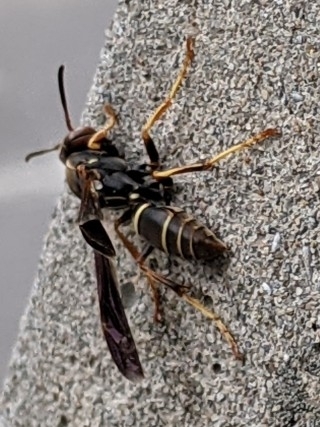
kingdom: Animalia
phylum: Arthropoda
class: Insecta
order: Hymenoptera
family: Eumenidae
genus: Polistes
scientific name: Polistes fuscatus
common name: Dark paper wasp
